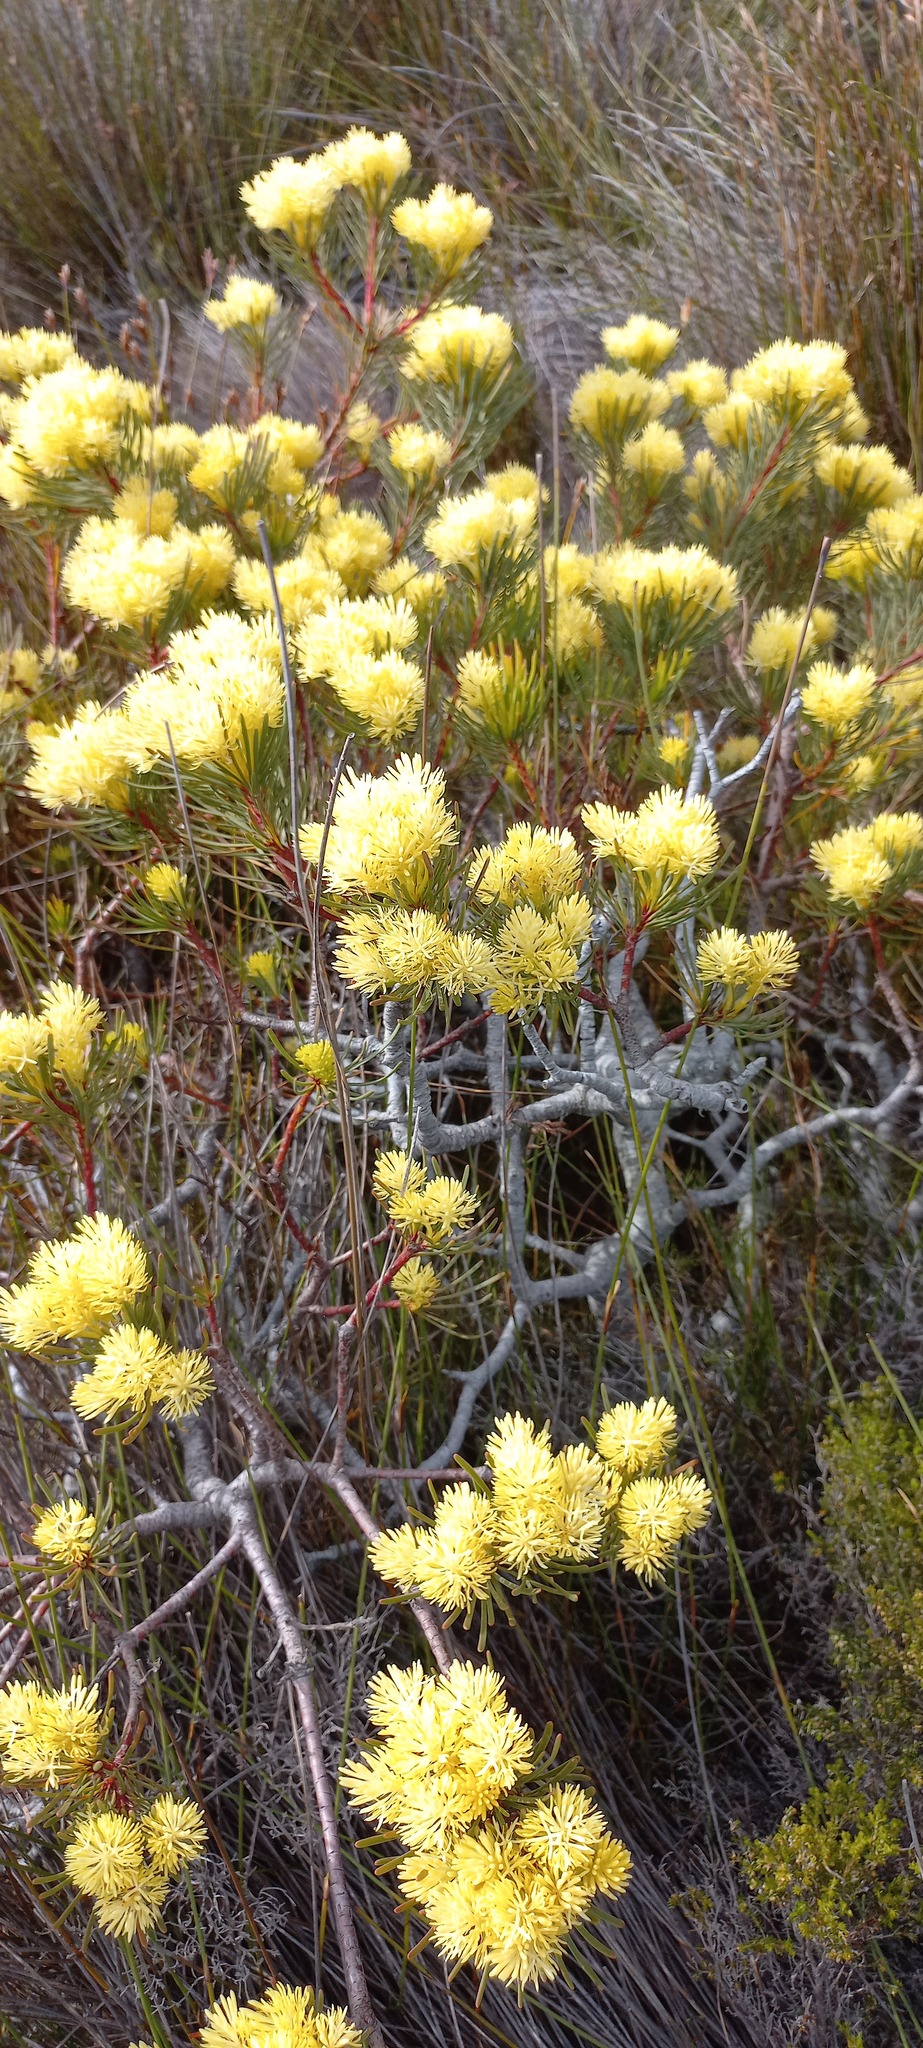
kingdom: Plantae
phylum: Tracheophyta
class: Magnoliopsida
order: Proteales
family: Proteaceae
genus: Aulax
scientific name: Aulax cancellata
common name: Channel-leaf featherbush
